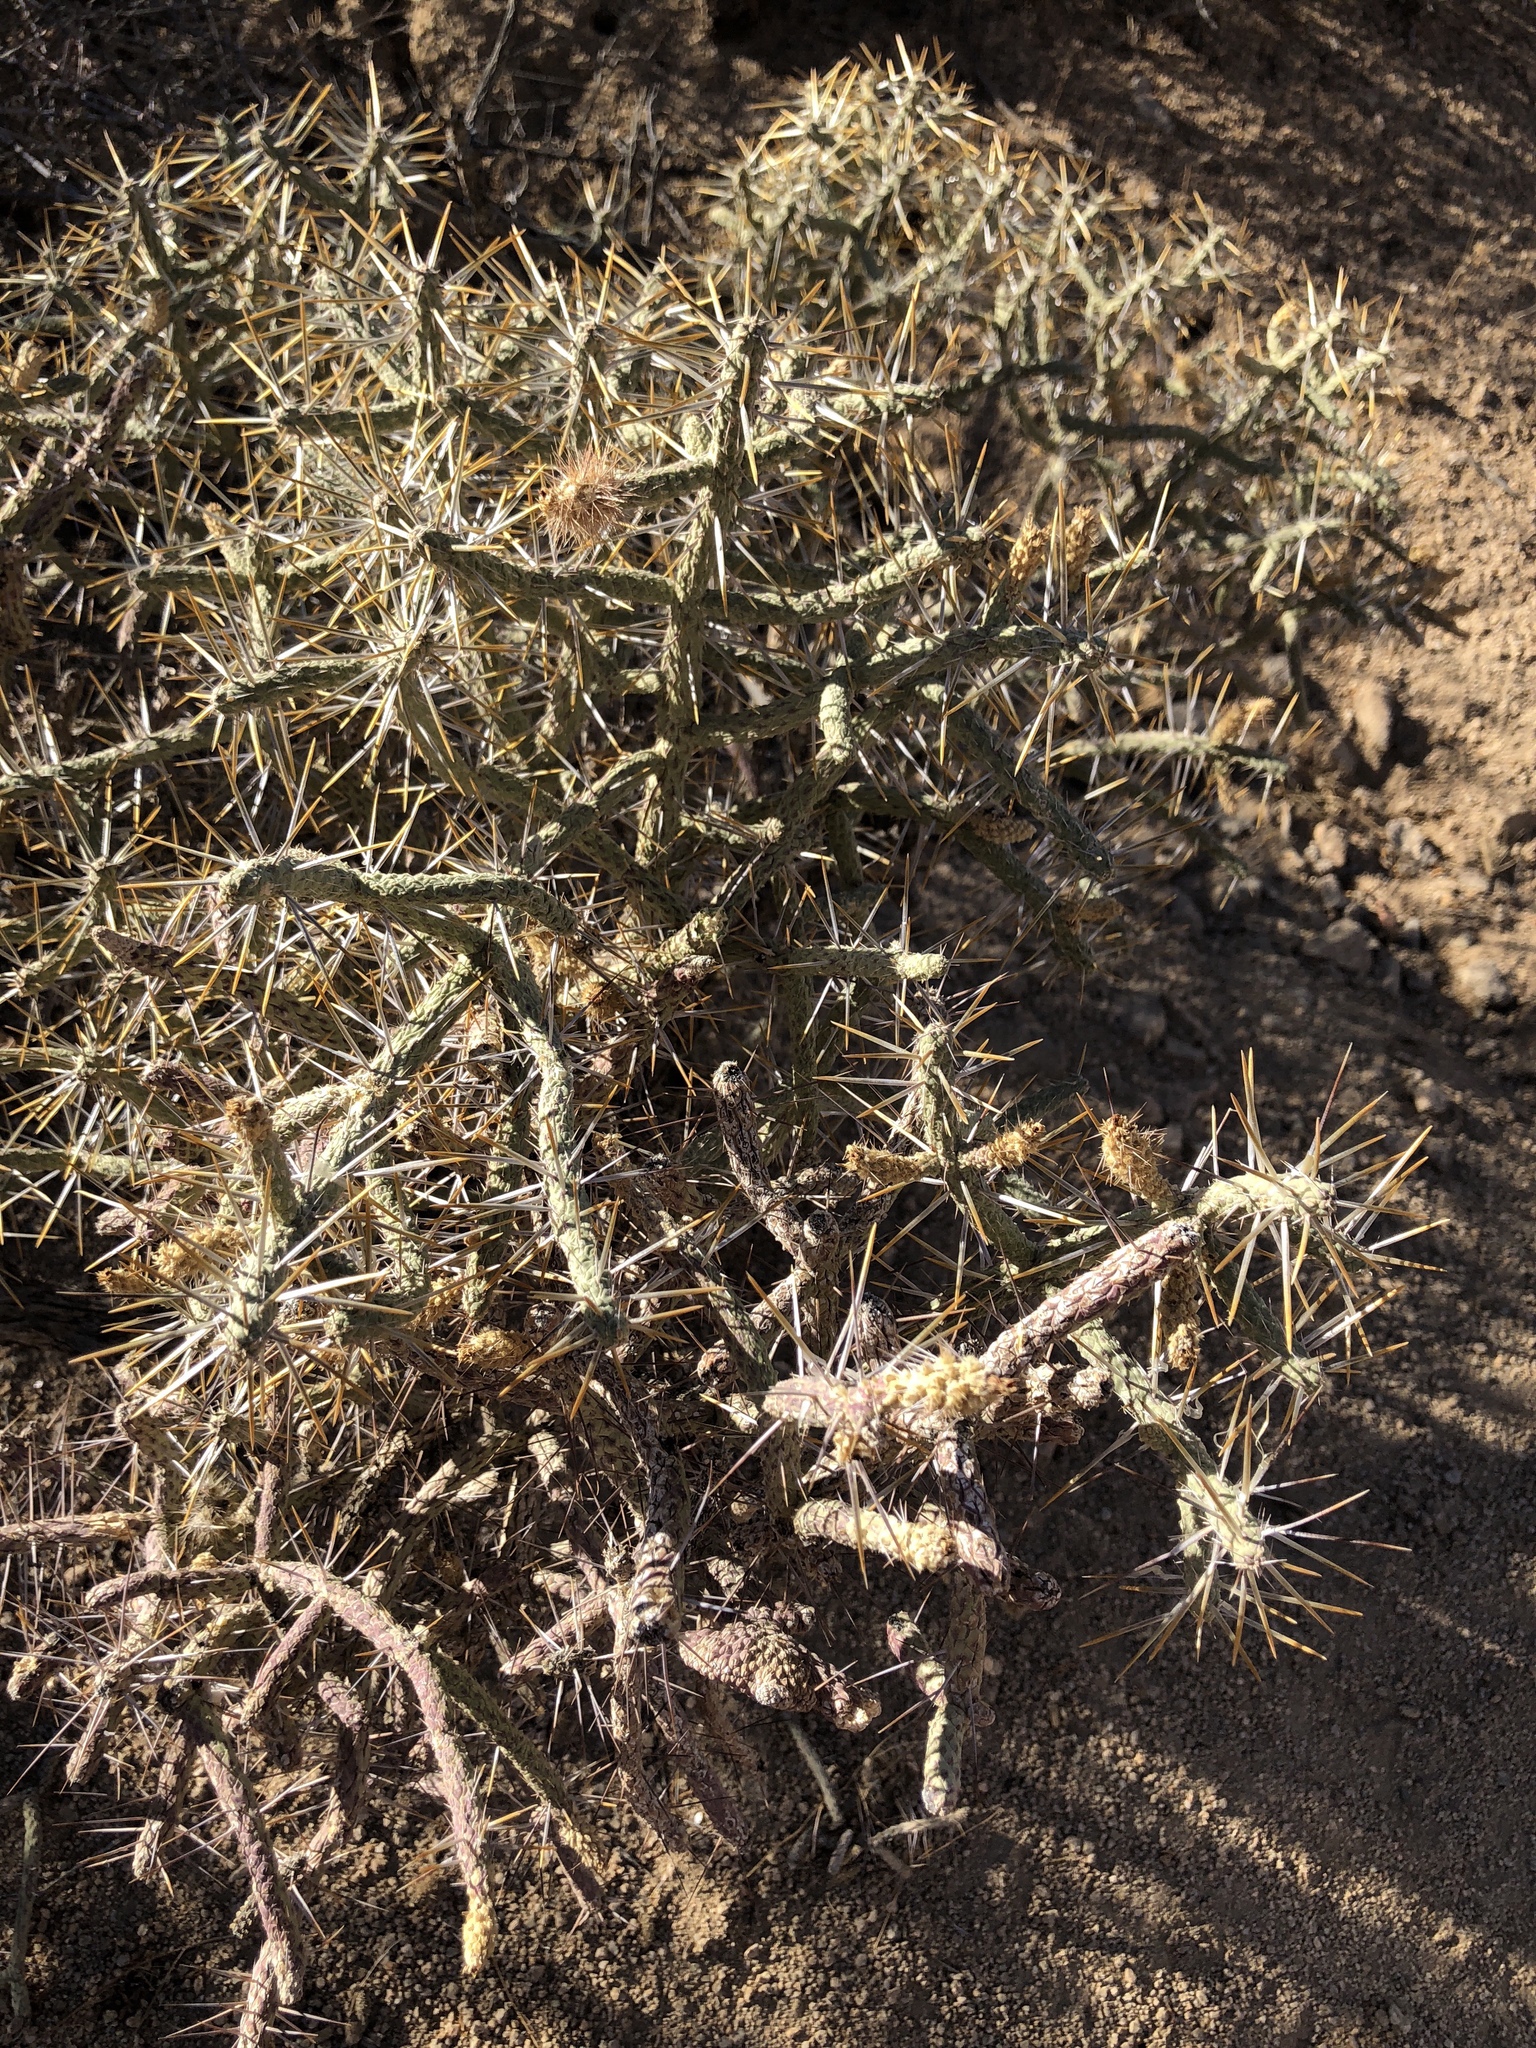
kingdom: Plantae
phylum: Tracheophyta
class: Magnoliopsida
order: Caryophyllales
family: Cactaceae
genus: Cylindropuntia
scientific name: Cylindropuntia ramosissima
